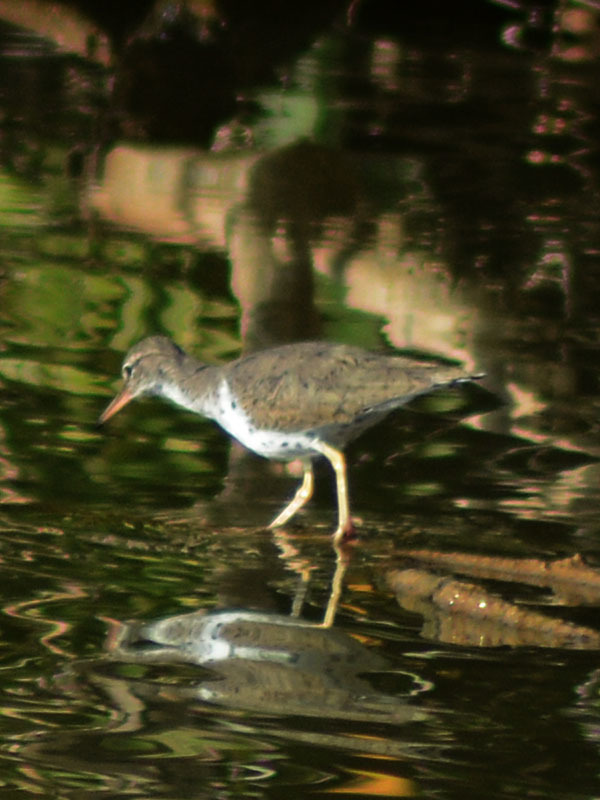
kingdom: Animalia
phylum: Chordata
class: Aves
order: Charadriiformes
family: Scolopacidae
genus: Actitis
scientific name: Actitis macularius
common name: Spotted sandpiper
